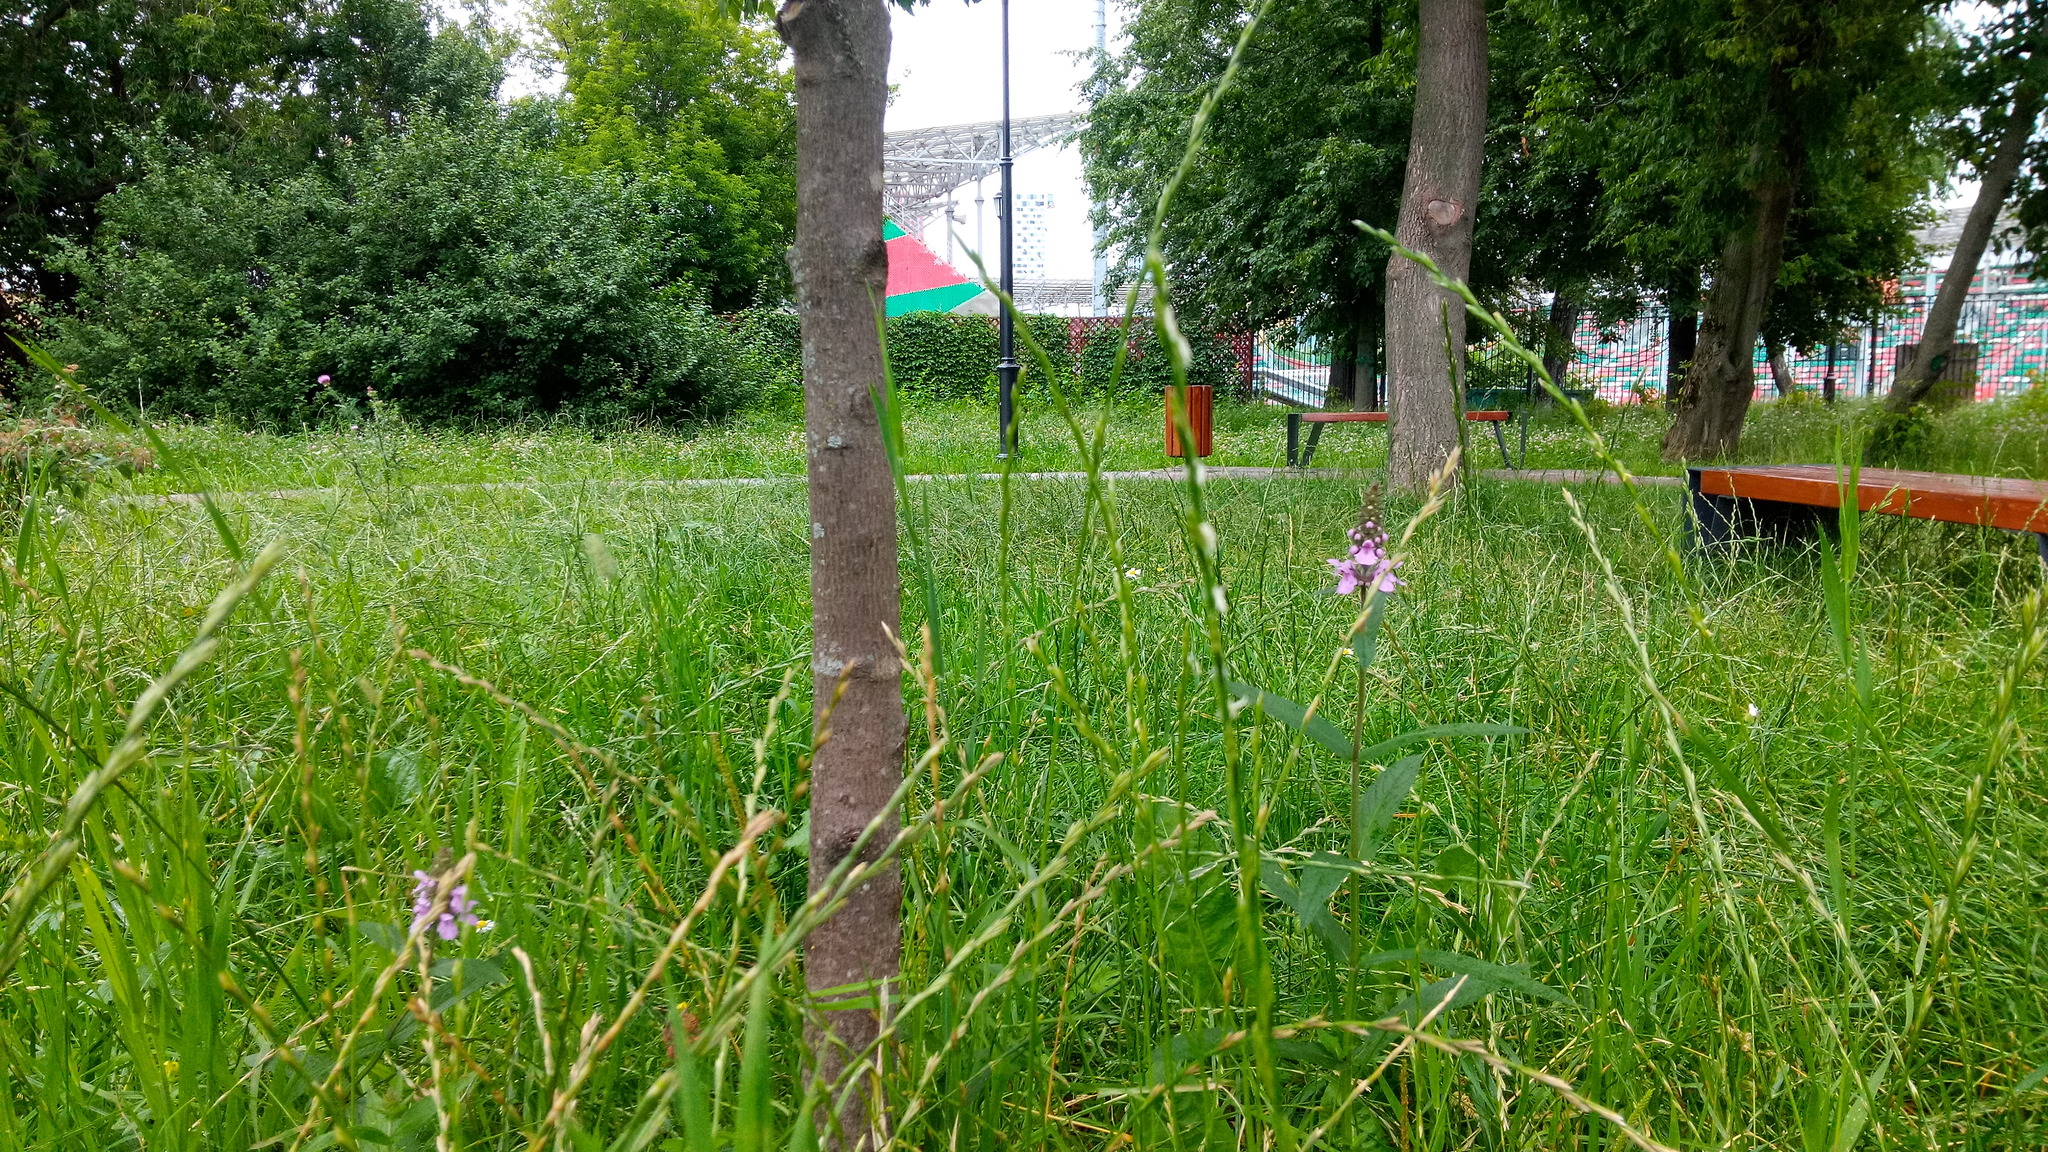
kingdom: Plantae
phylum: Tracheophyta
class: Magnoliopsida
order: Lamiales
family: Lamiaceae
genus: Stachys
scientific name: Stachys palustris
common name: Marsh woundwort
